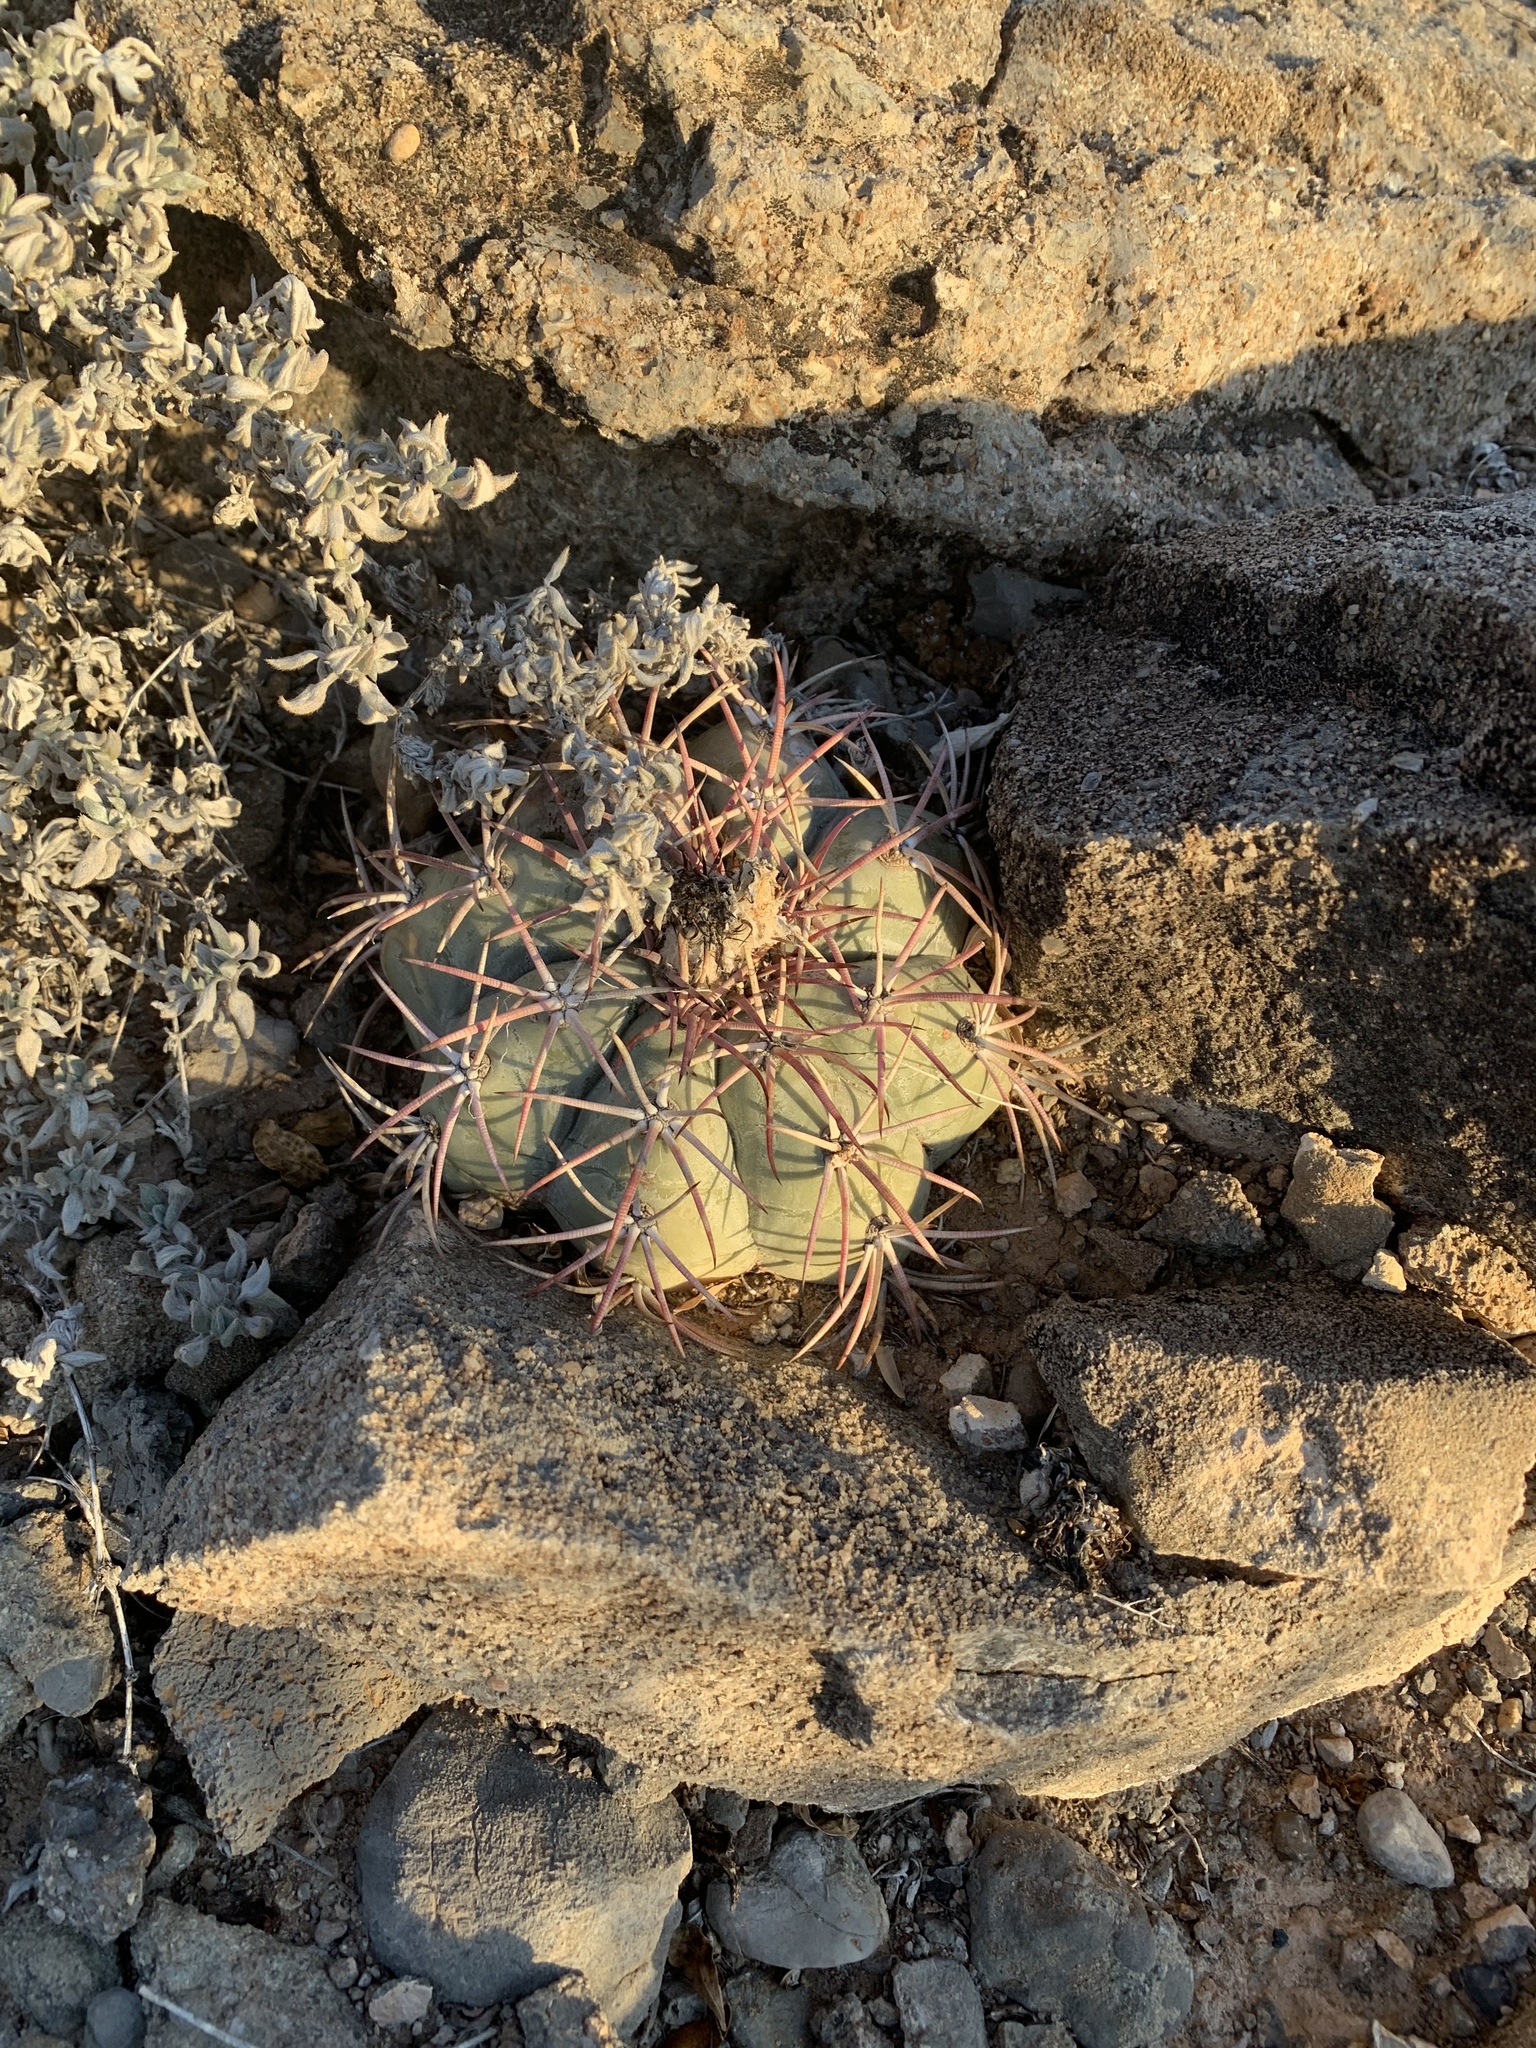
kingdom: Plantae
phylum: Tracheophyta
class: Magnoliopsida
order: Caryophyllales
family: Cactaceae
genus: Echinocactus
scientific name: Echinocactus horizonthalonius
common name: Devilshead
